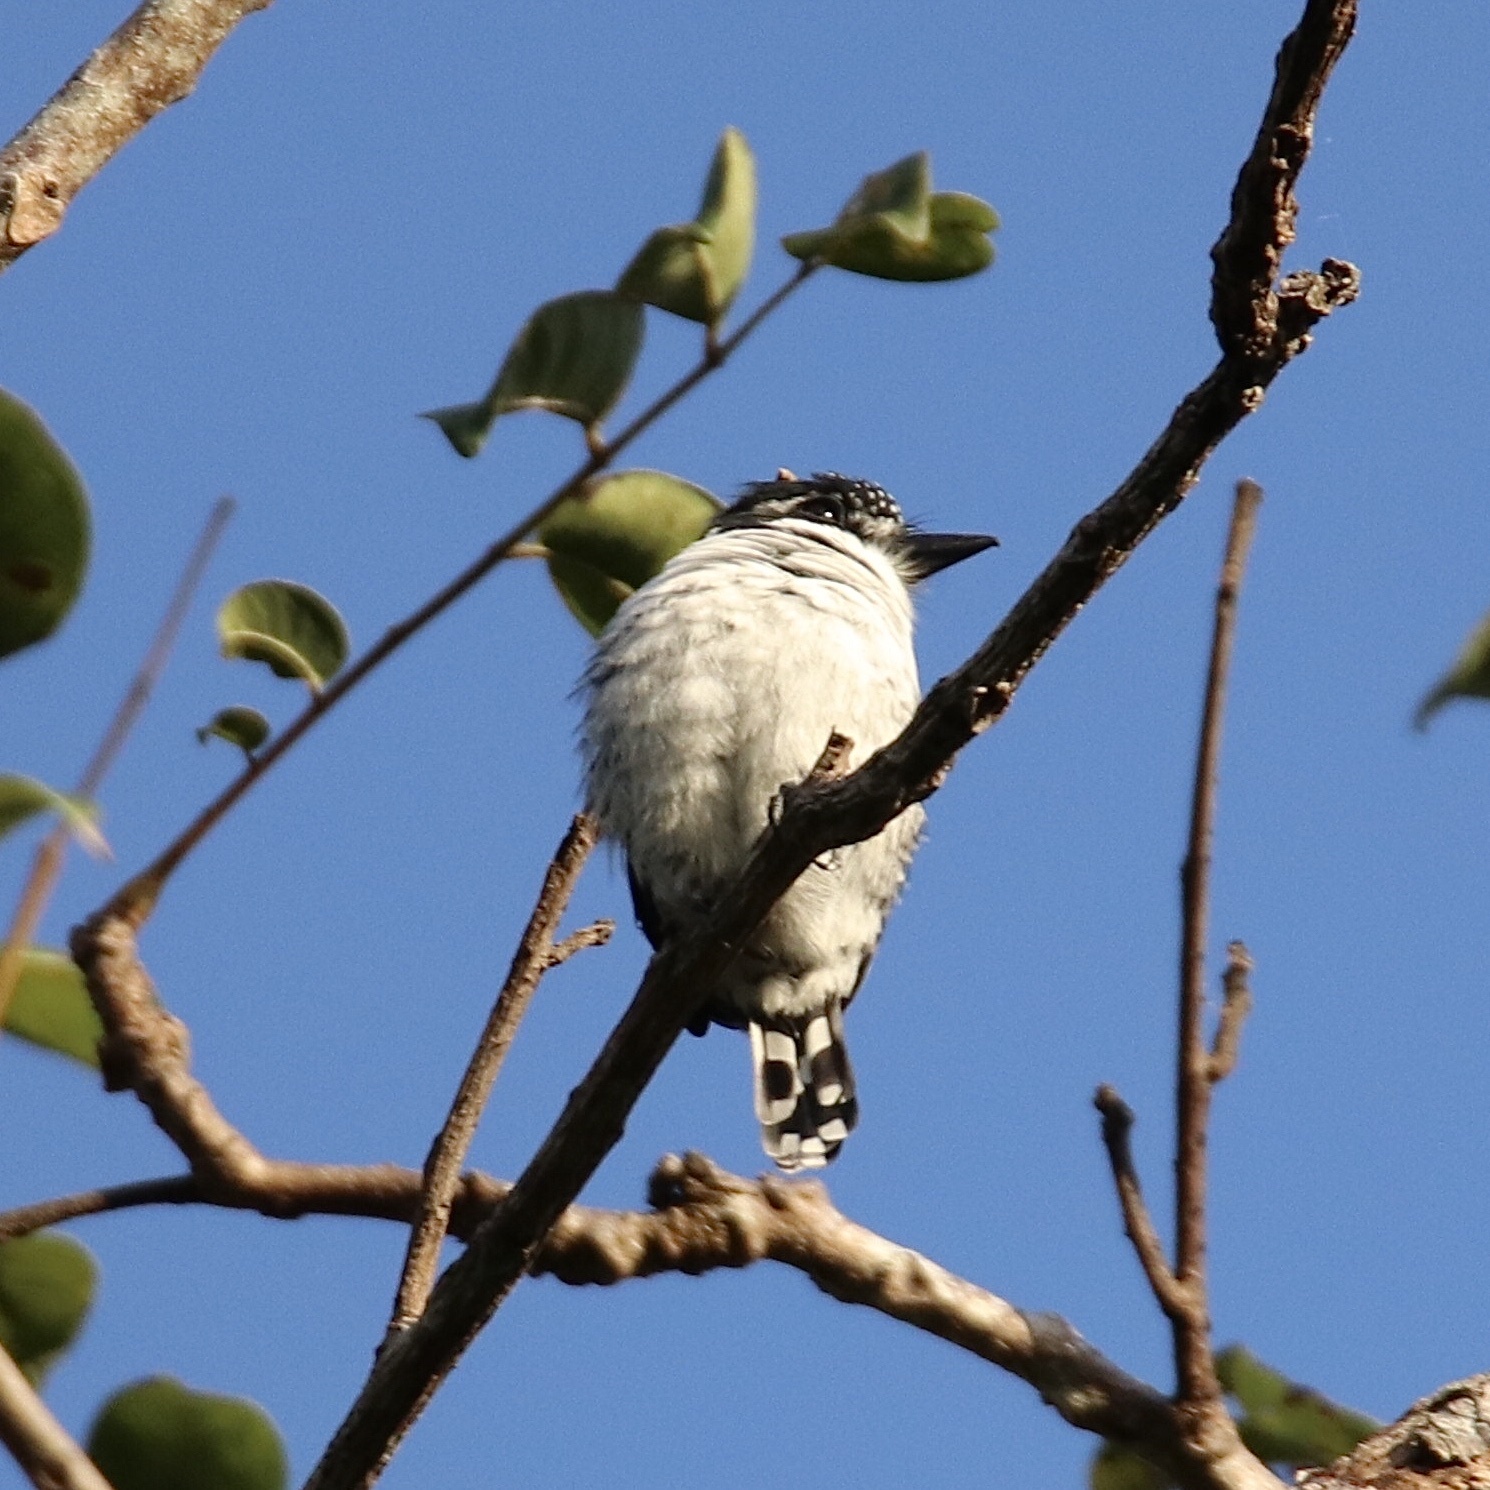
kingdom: Animalia
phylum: Chordata
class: Aves
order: Piciformes
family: Bucconidae
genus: Notharchus
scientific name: Notharchus tectus
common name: Pied puffbird
